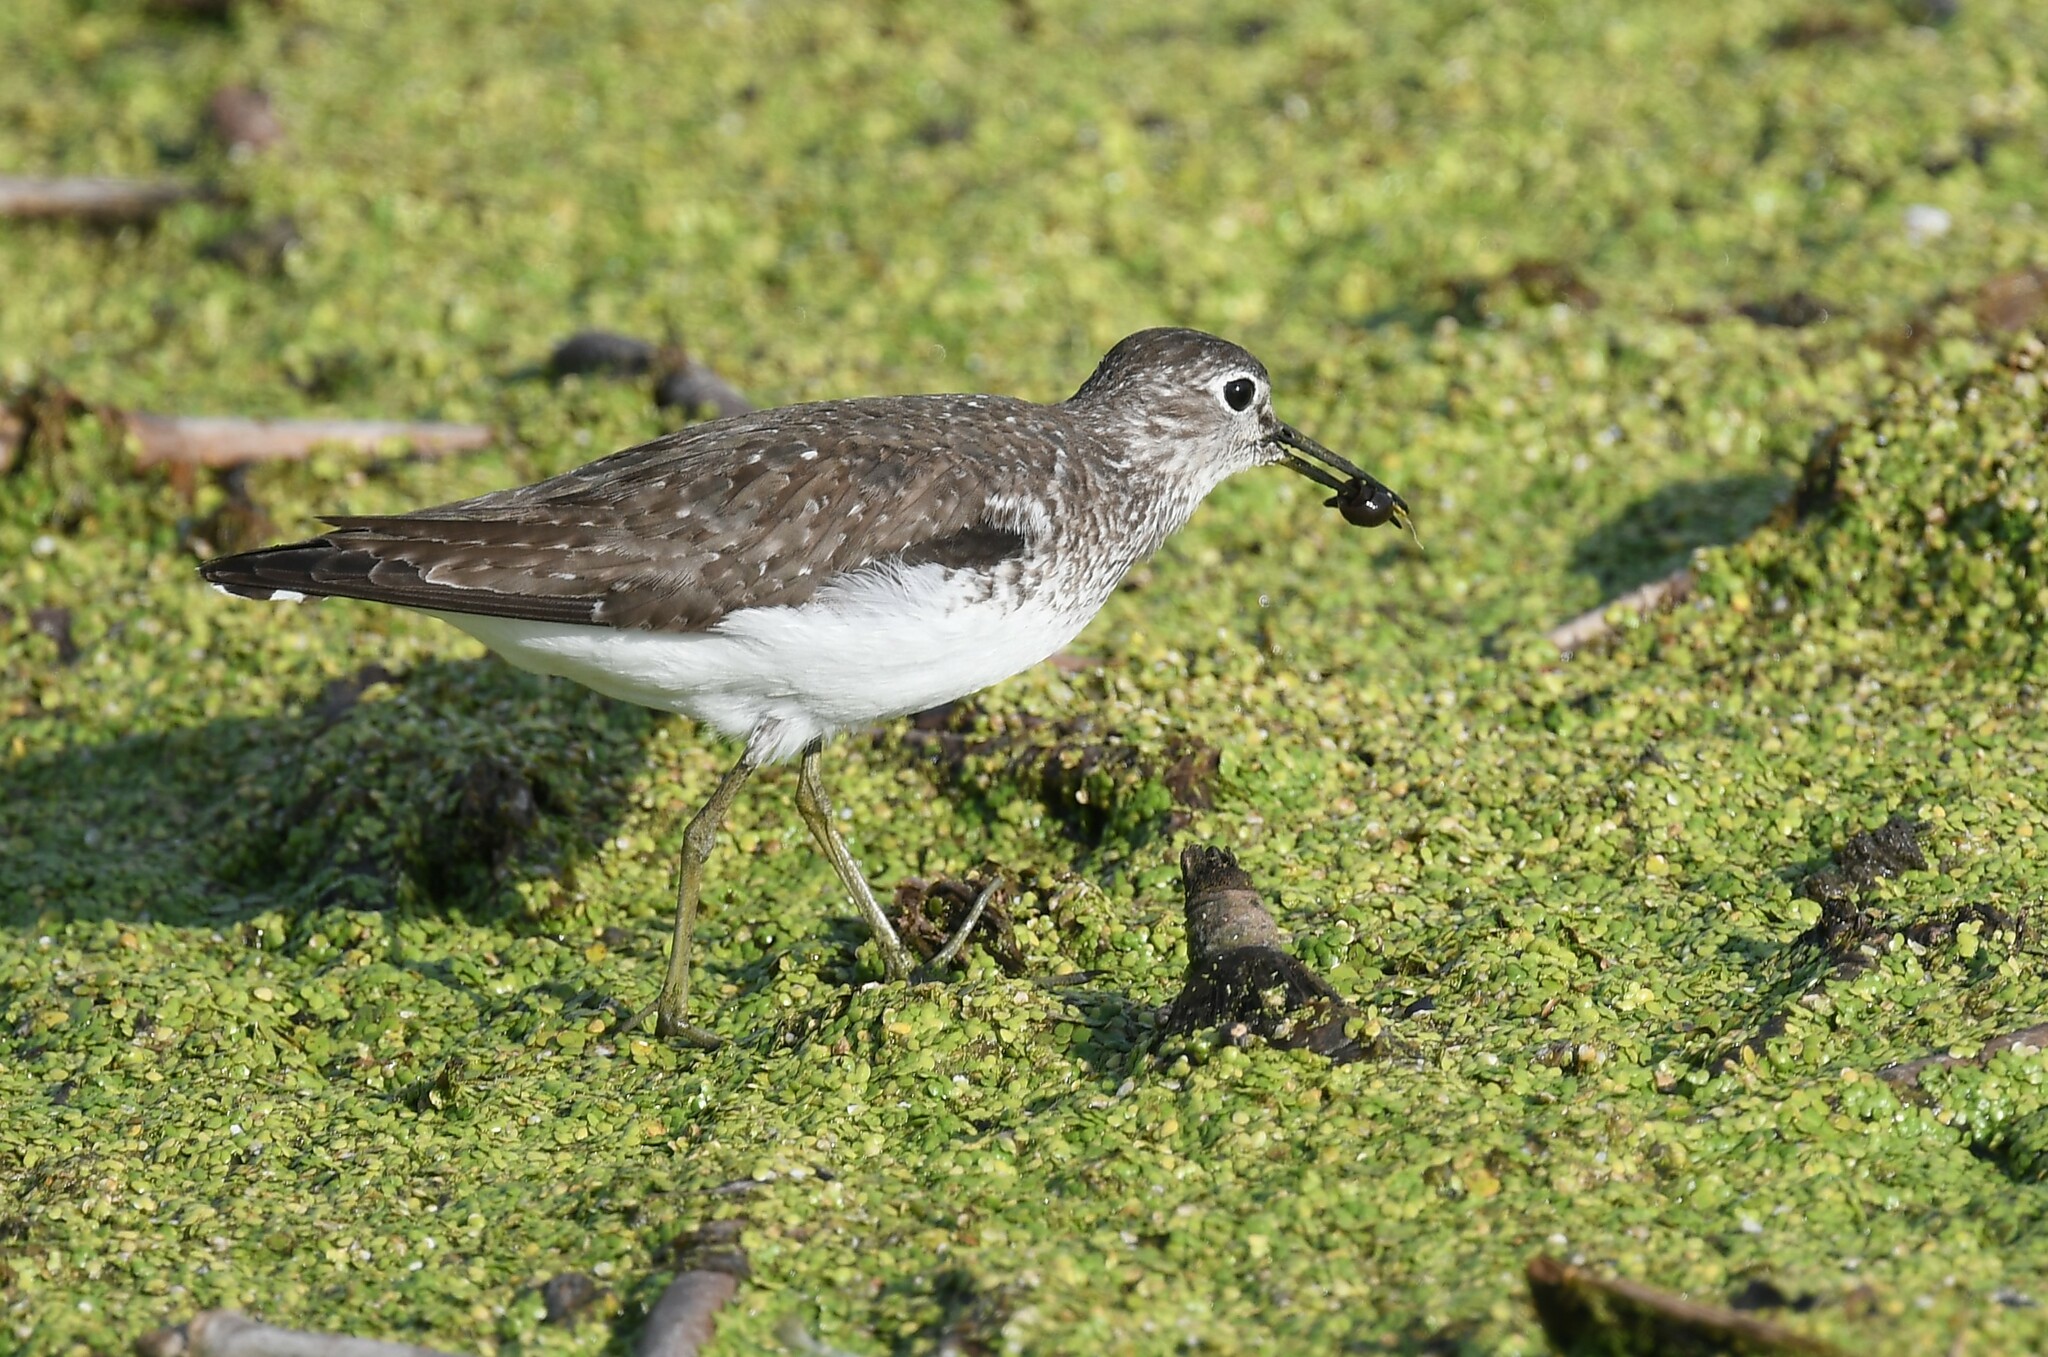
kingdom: Animalia
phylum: Chordata
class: Aves
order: Charadriiformes
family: Scolopacidae
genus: Tringa
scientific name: Tringa solitaria
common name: Solitary sandpiper
